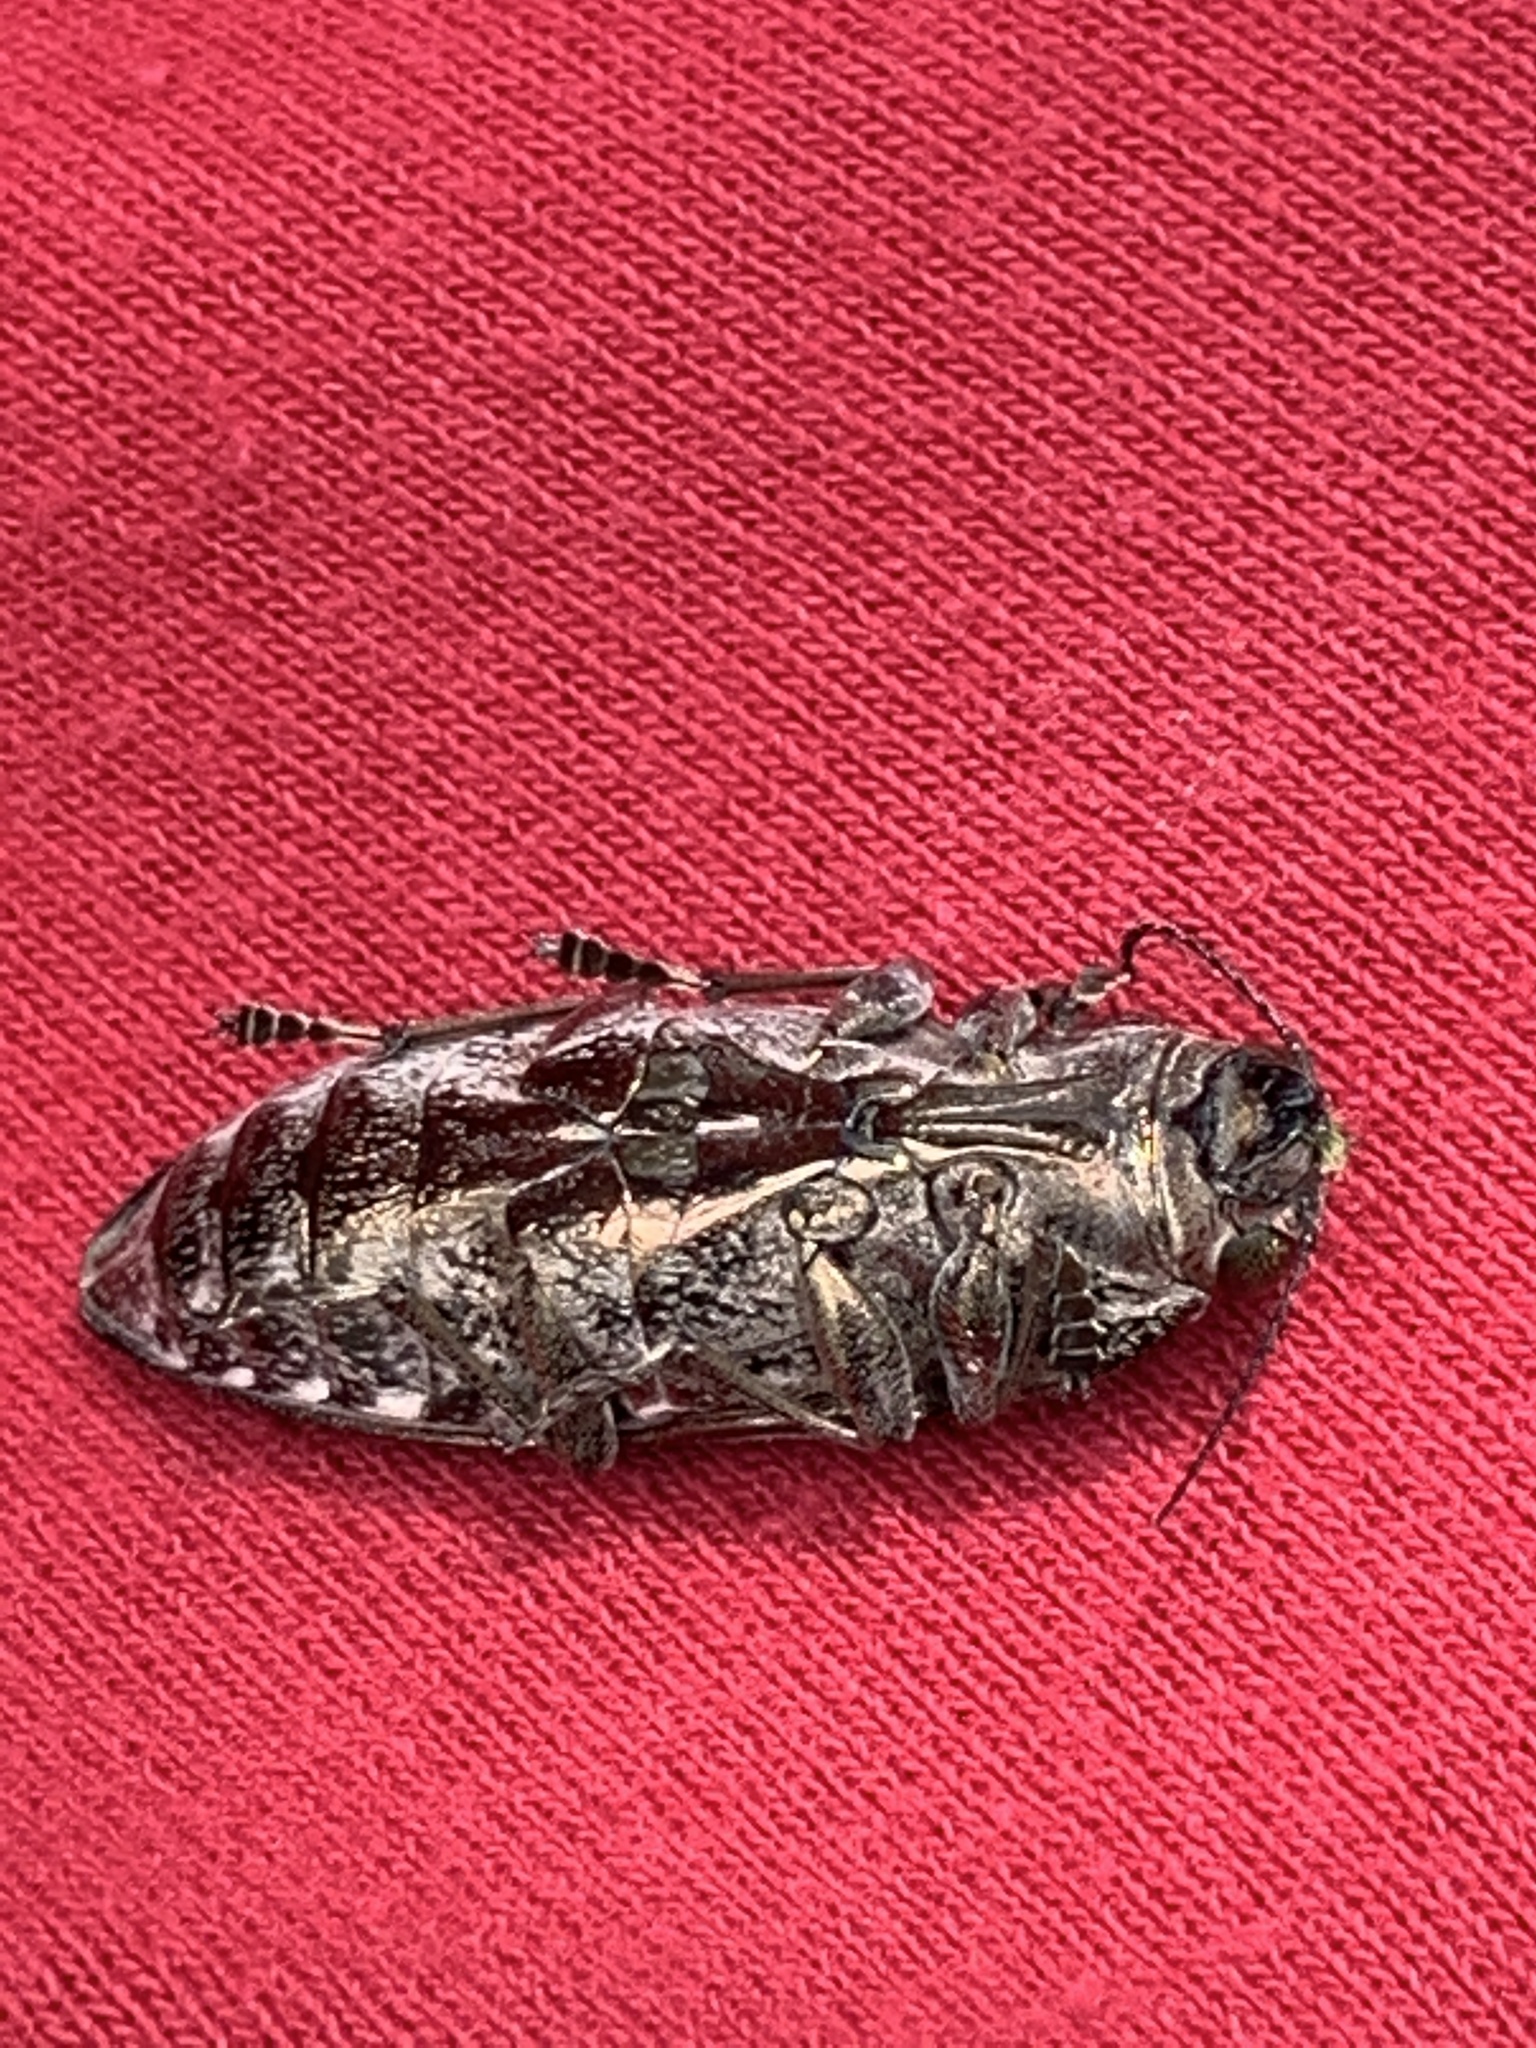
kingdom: Animalia
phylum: Arthropoda
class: Insecta
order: Coleoptera
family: Buprestidae
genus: Chalcophora
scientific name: Chalcophora virginiensis
